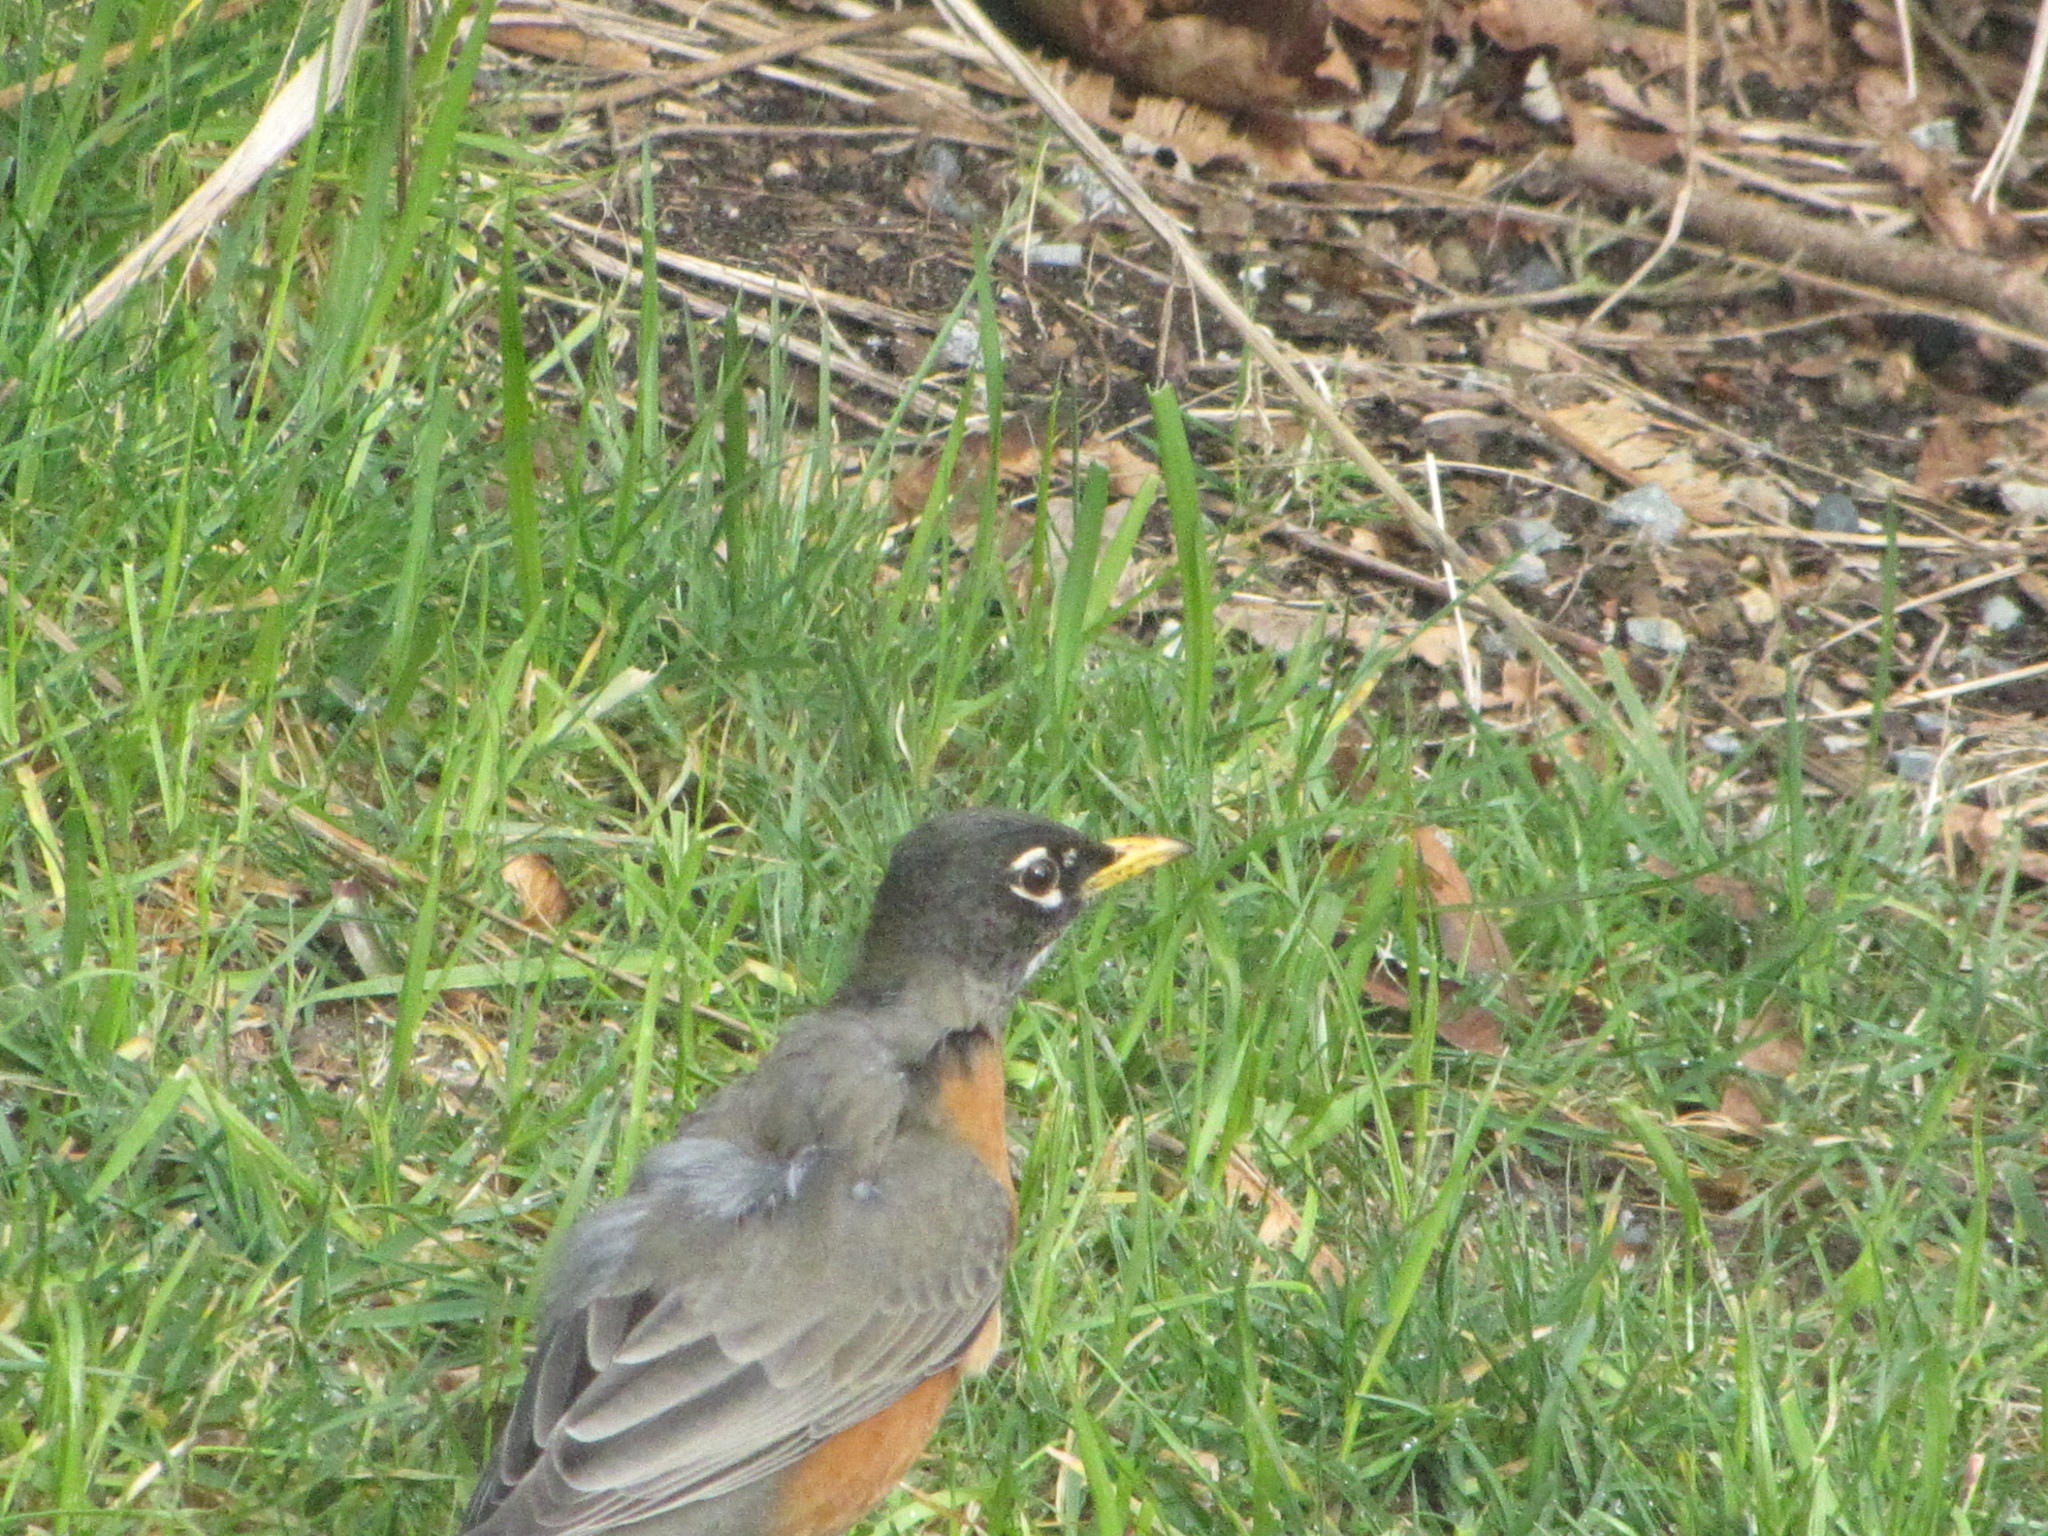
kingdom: Animalia
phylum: Chordata
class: Aves
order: Passeriformes
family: Turdidae
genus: Turdus
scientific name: Turdus migratorius
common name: American robin
